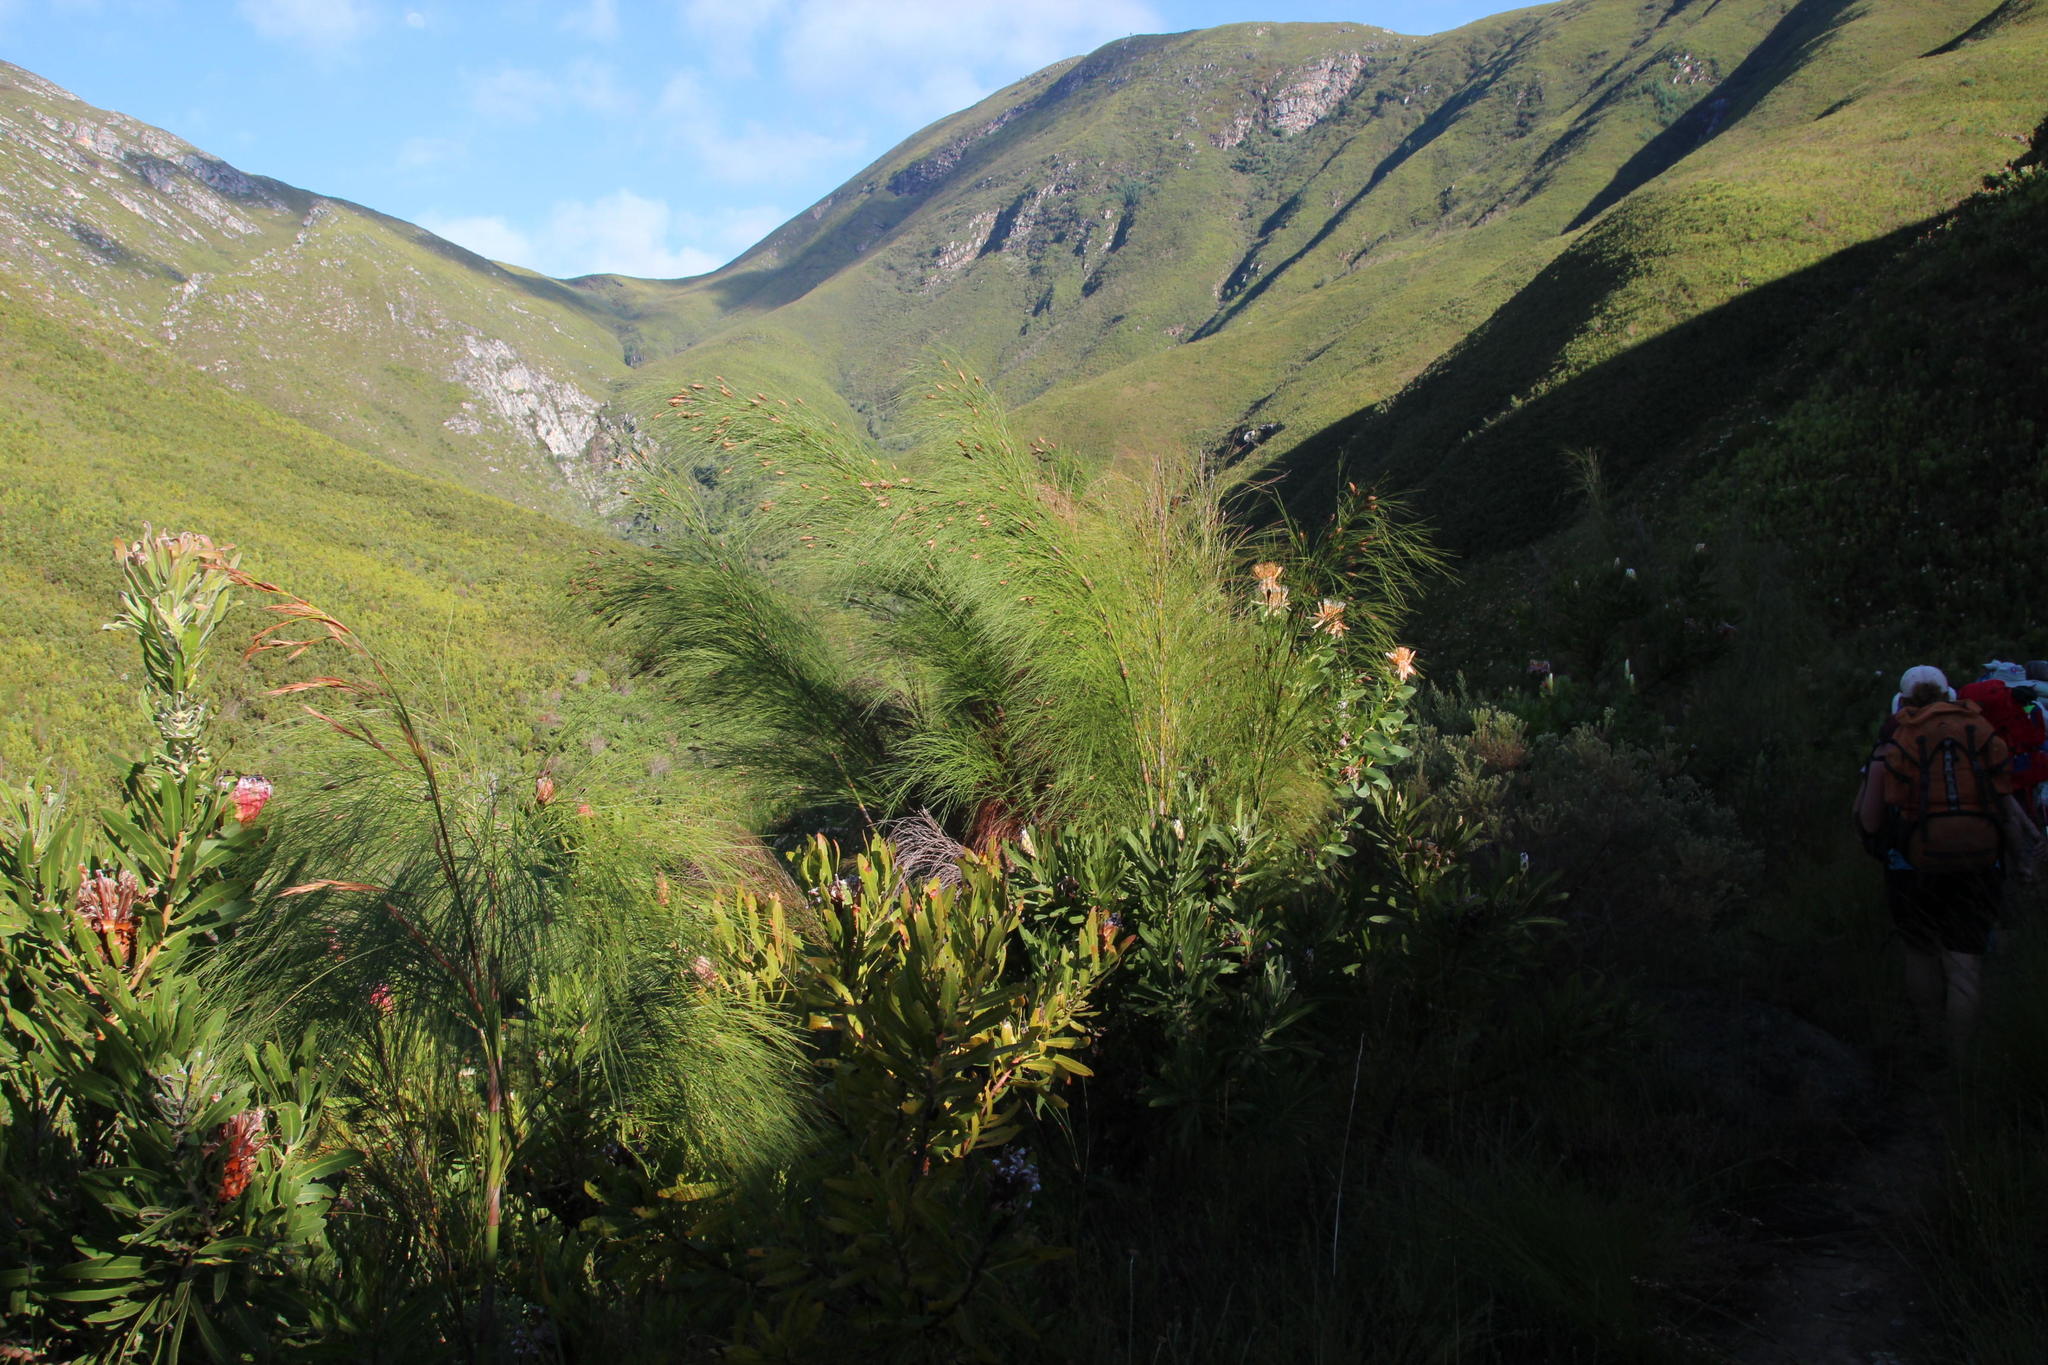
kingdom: Plantae
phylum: Tracheophyta
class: Liliopsida
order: Poales
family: Restionaceae
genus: Cannomois
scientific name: Cannomois grandis
